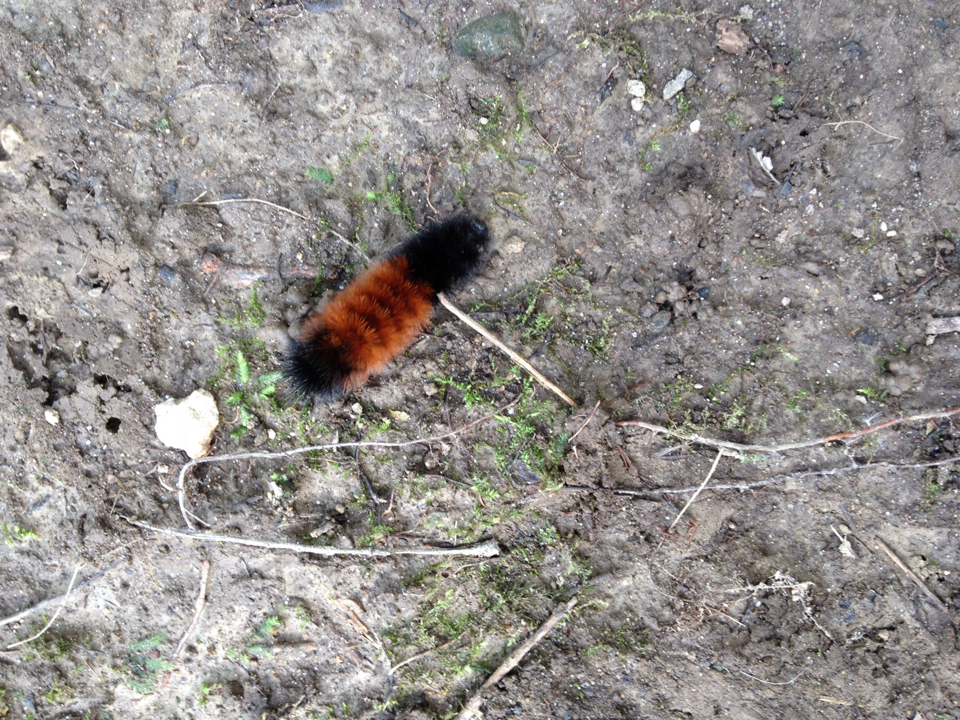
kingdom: Animalia
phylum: Arthropoda
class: Insecta
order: Lepidoptera
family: Erebidae
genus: Pyrrharctia
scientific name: Pyrrharctia isabella
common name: Isabella tiger moth
